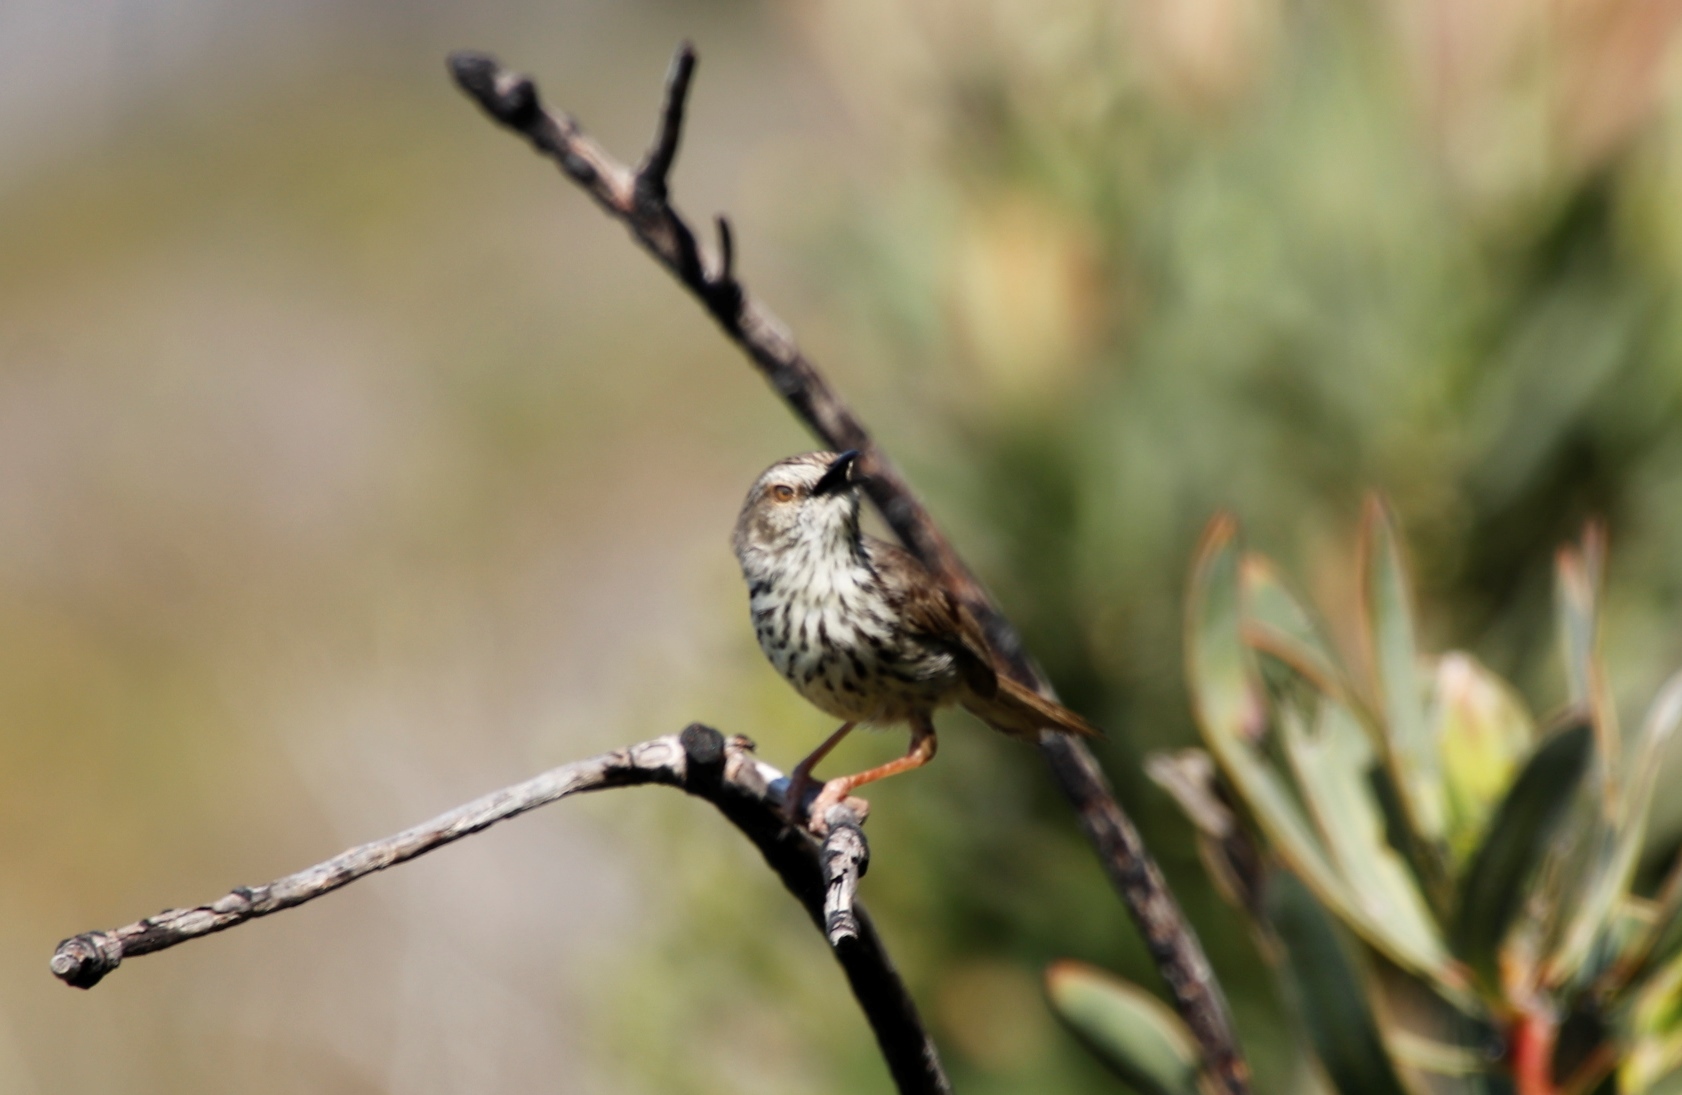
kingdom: Animalia
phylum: Chordata
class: Aves
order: Passeriformes
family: Cisticolidae
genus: Prinia
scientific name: Prinia maculosa
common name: Karoo prinia
